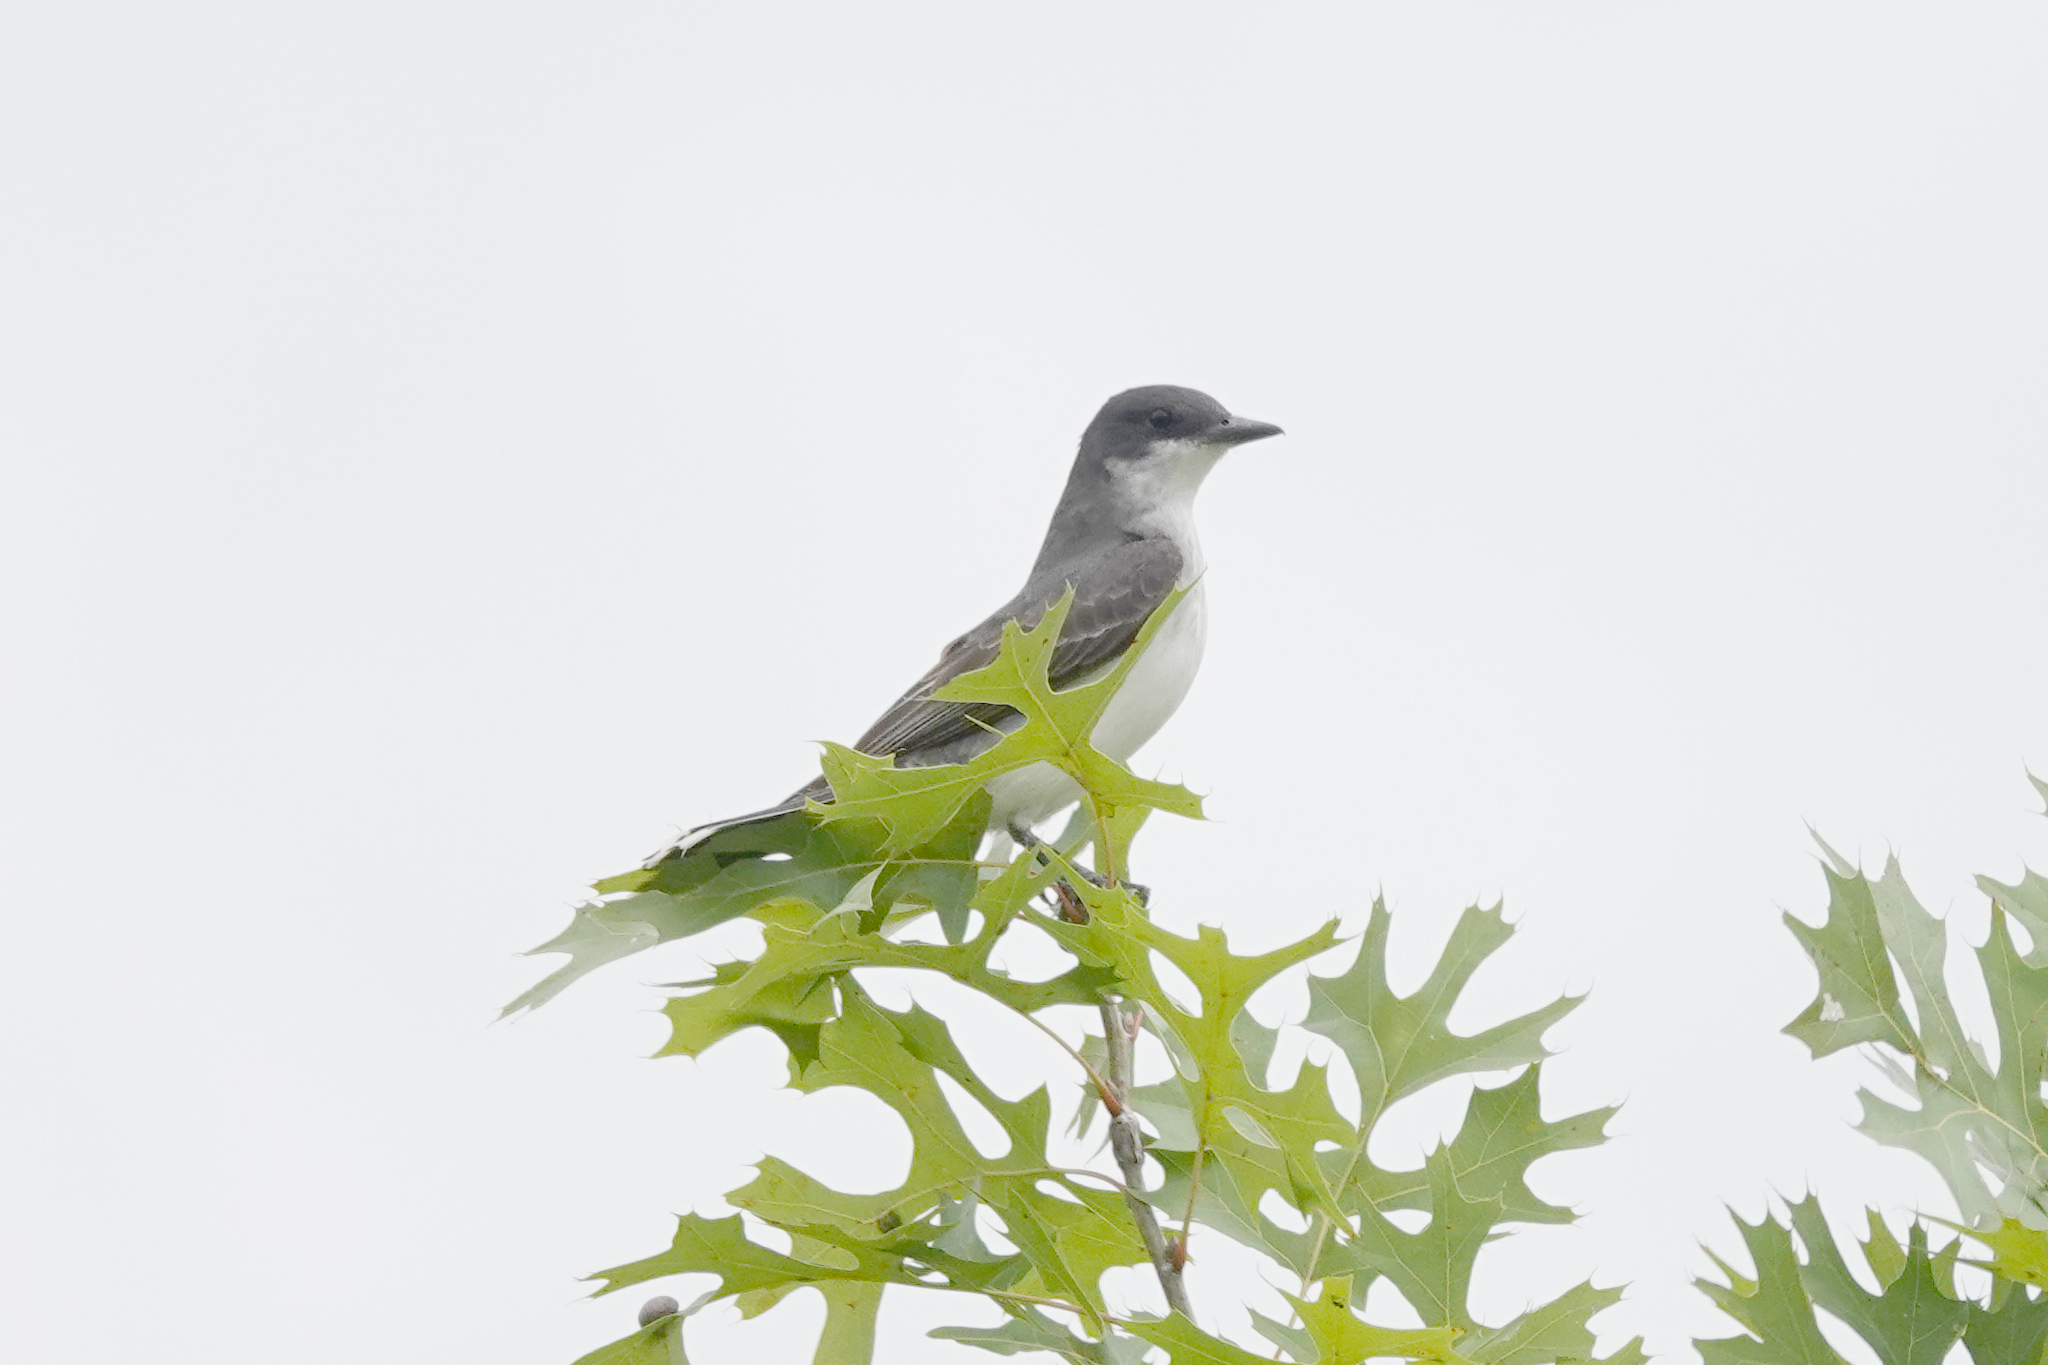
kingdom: Animalia
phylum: Chordata
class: Aves
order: Passeriformes
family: Tyrannidae
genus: Tyrannus
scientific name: Tyrannus tyrannus
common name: Eastern kingbird
